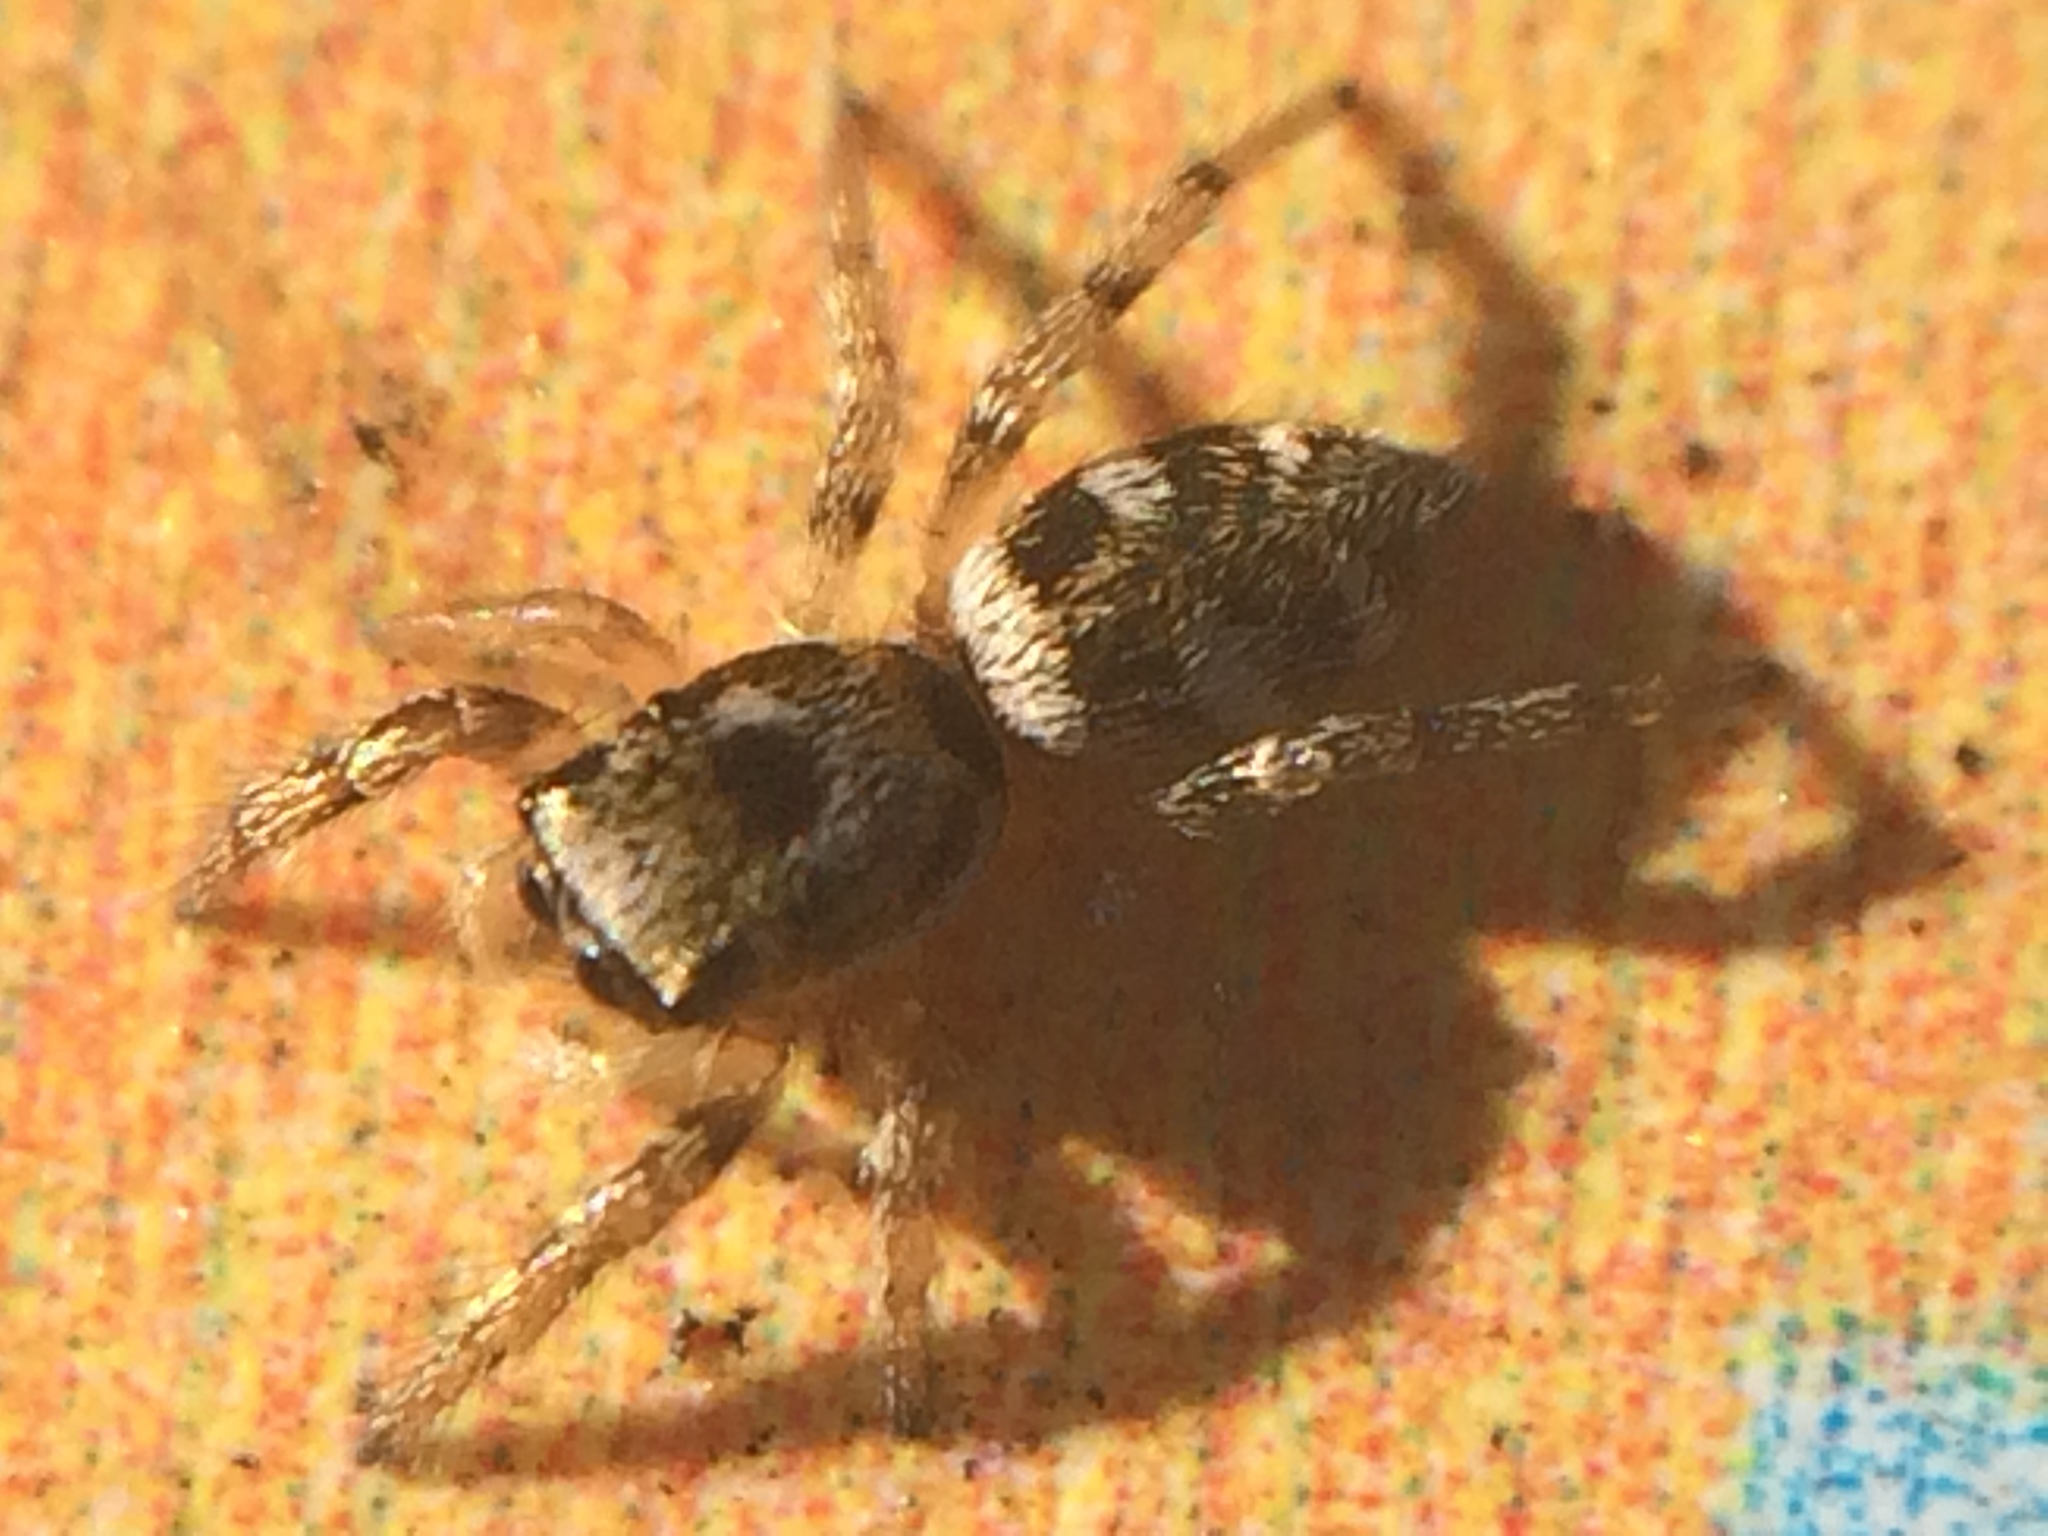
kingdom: Animalia
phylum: Arthropoda
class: Arachnida
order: Araneae
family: Salticidae
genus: Salticus
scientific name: Salticus scenicus
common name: Zebra jumper
